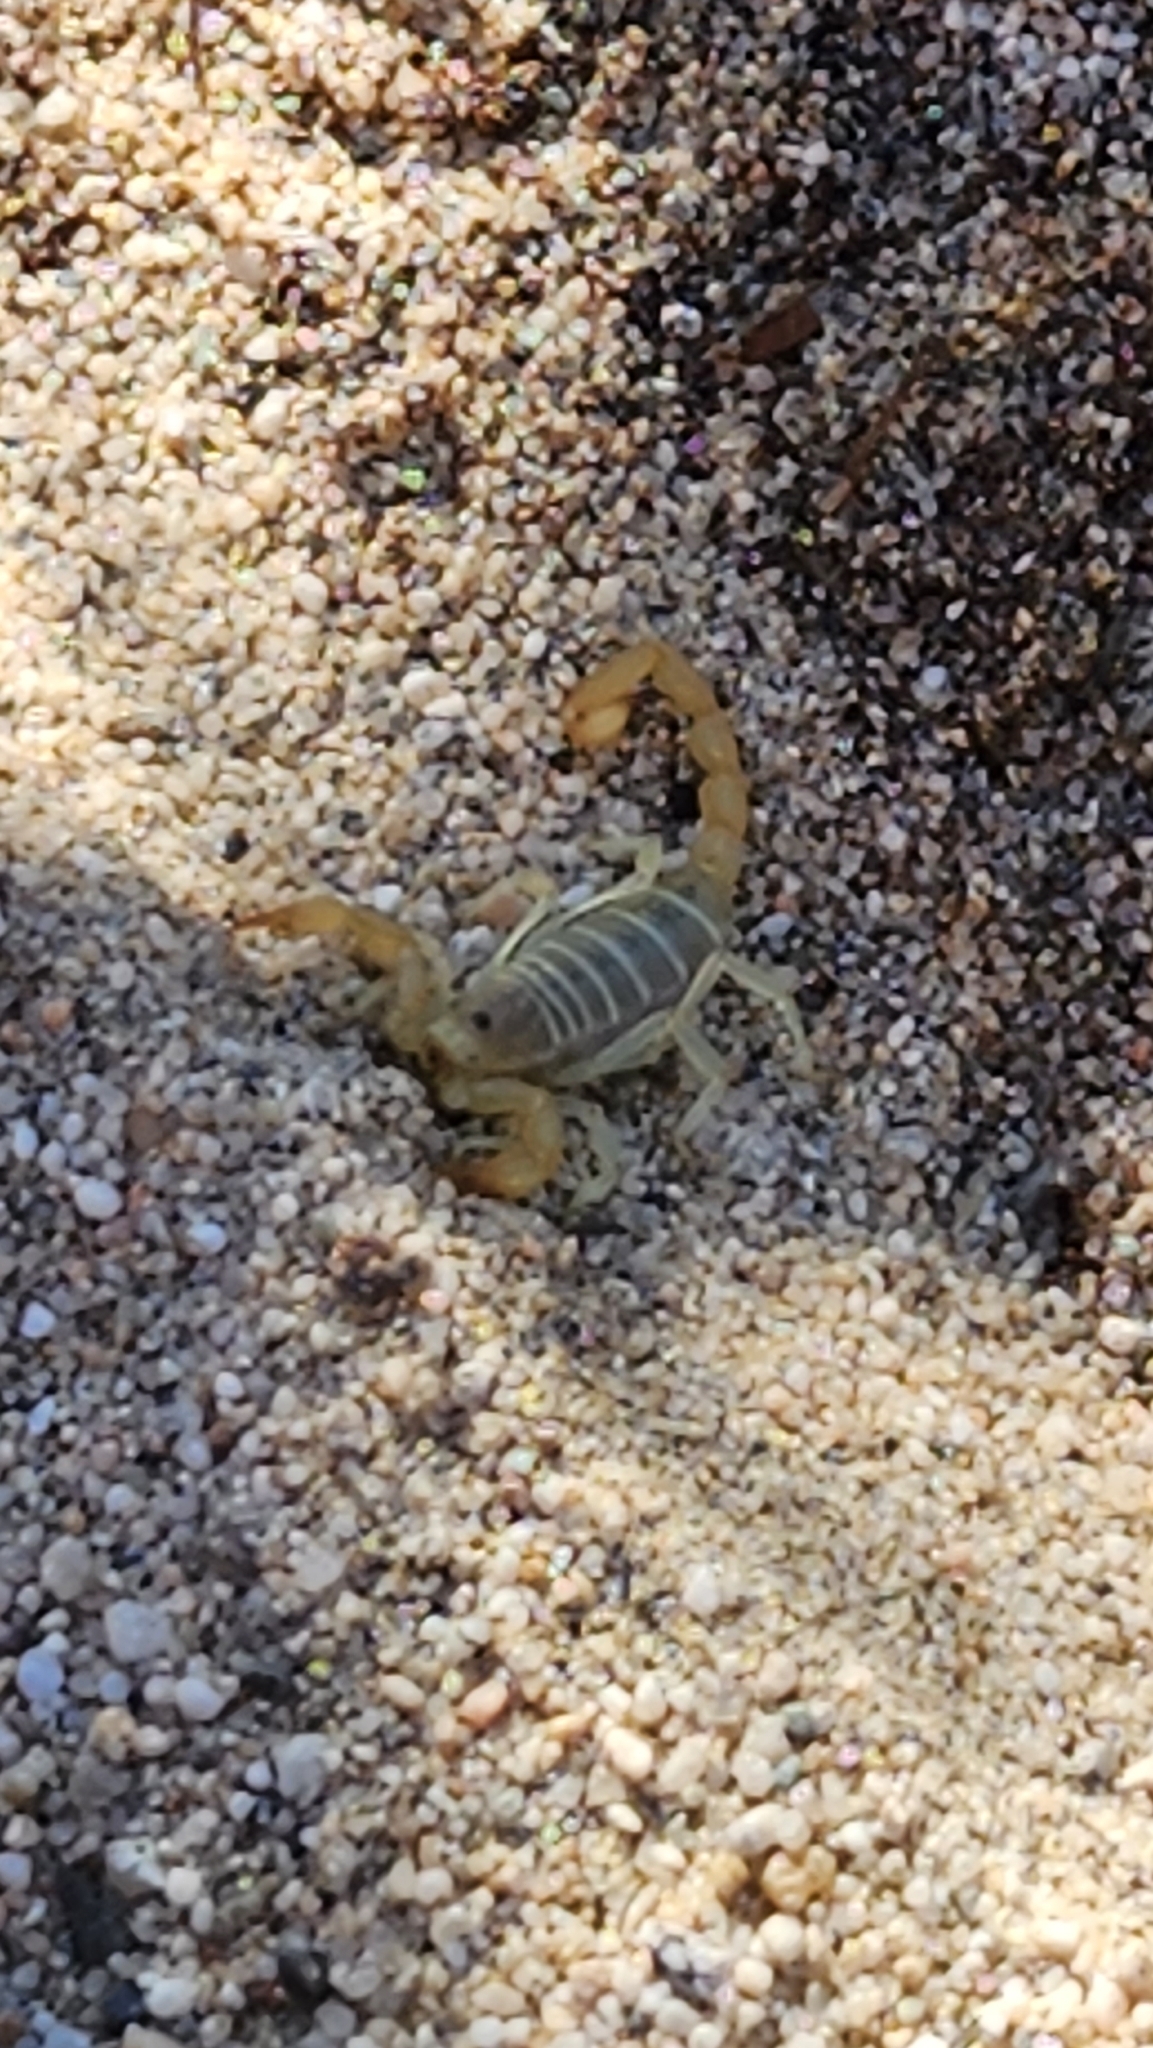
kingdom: Animalia
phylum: Arthropoda
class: Arachnida
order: Scorpiones
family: Vaejovidae
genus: Paruroctonus
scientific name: Paruroctonus luteolus
